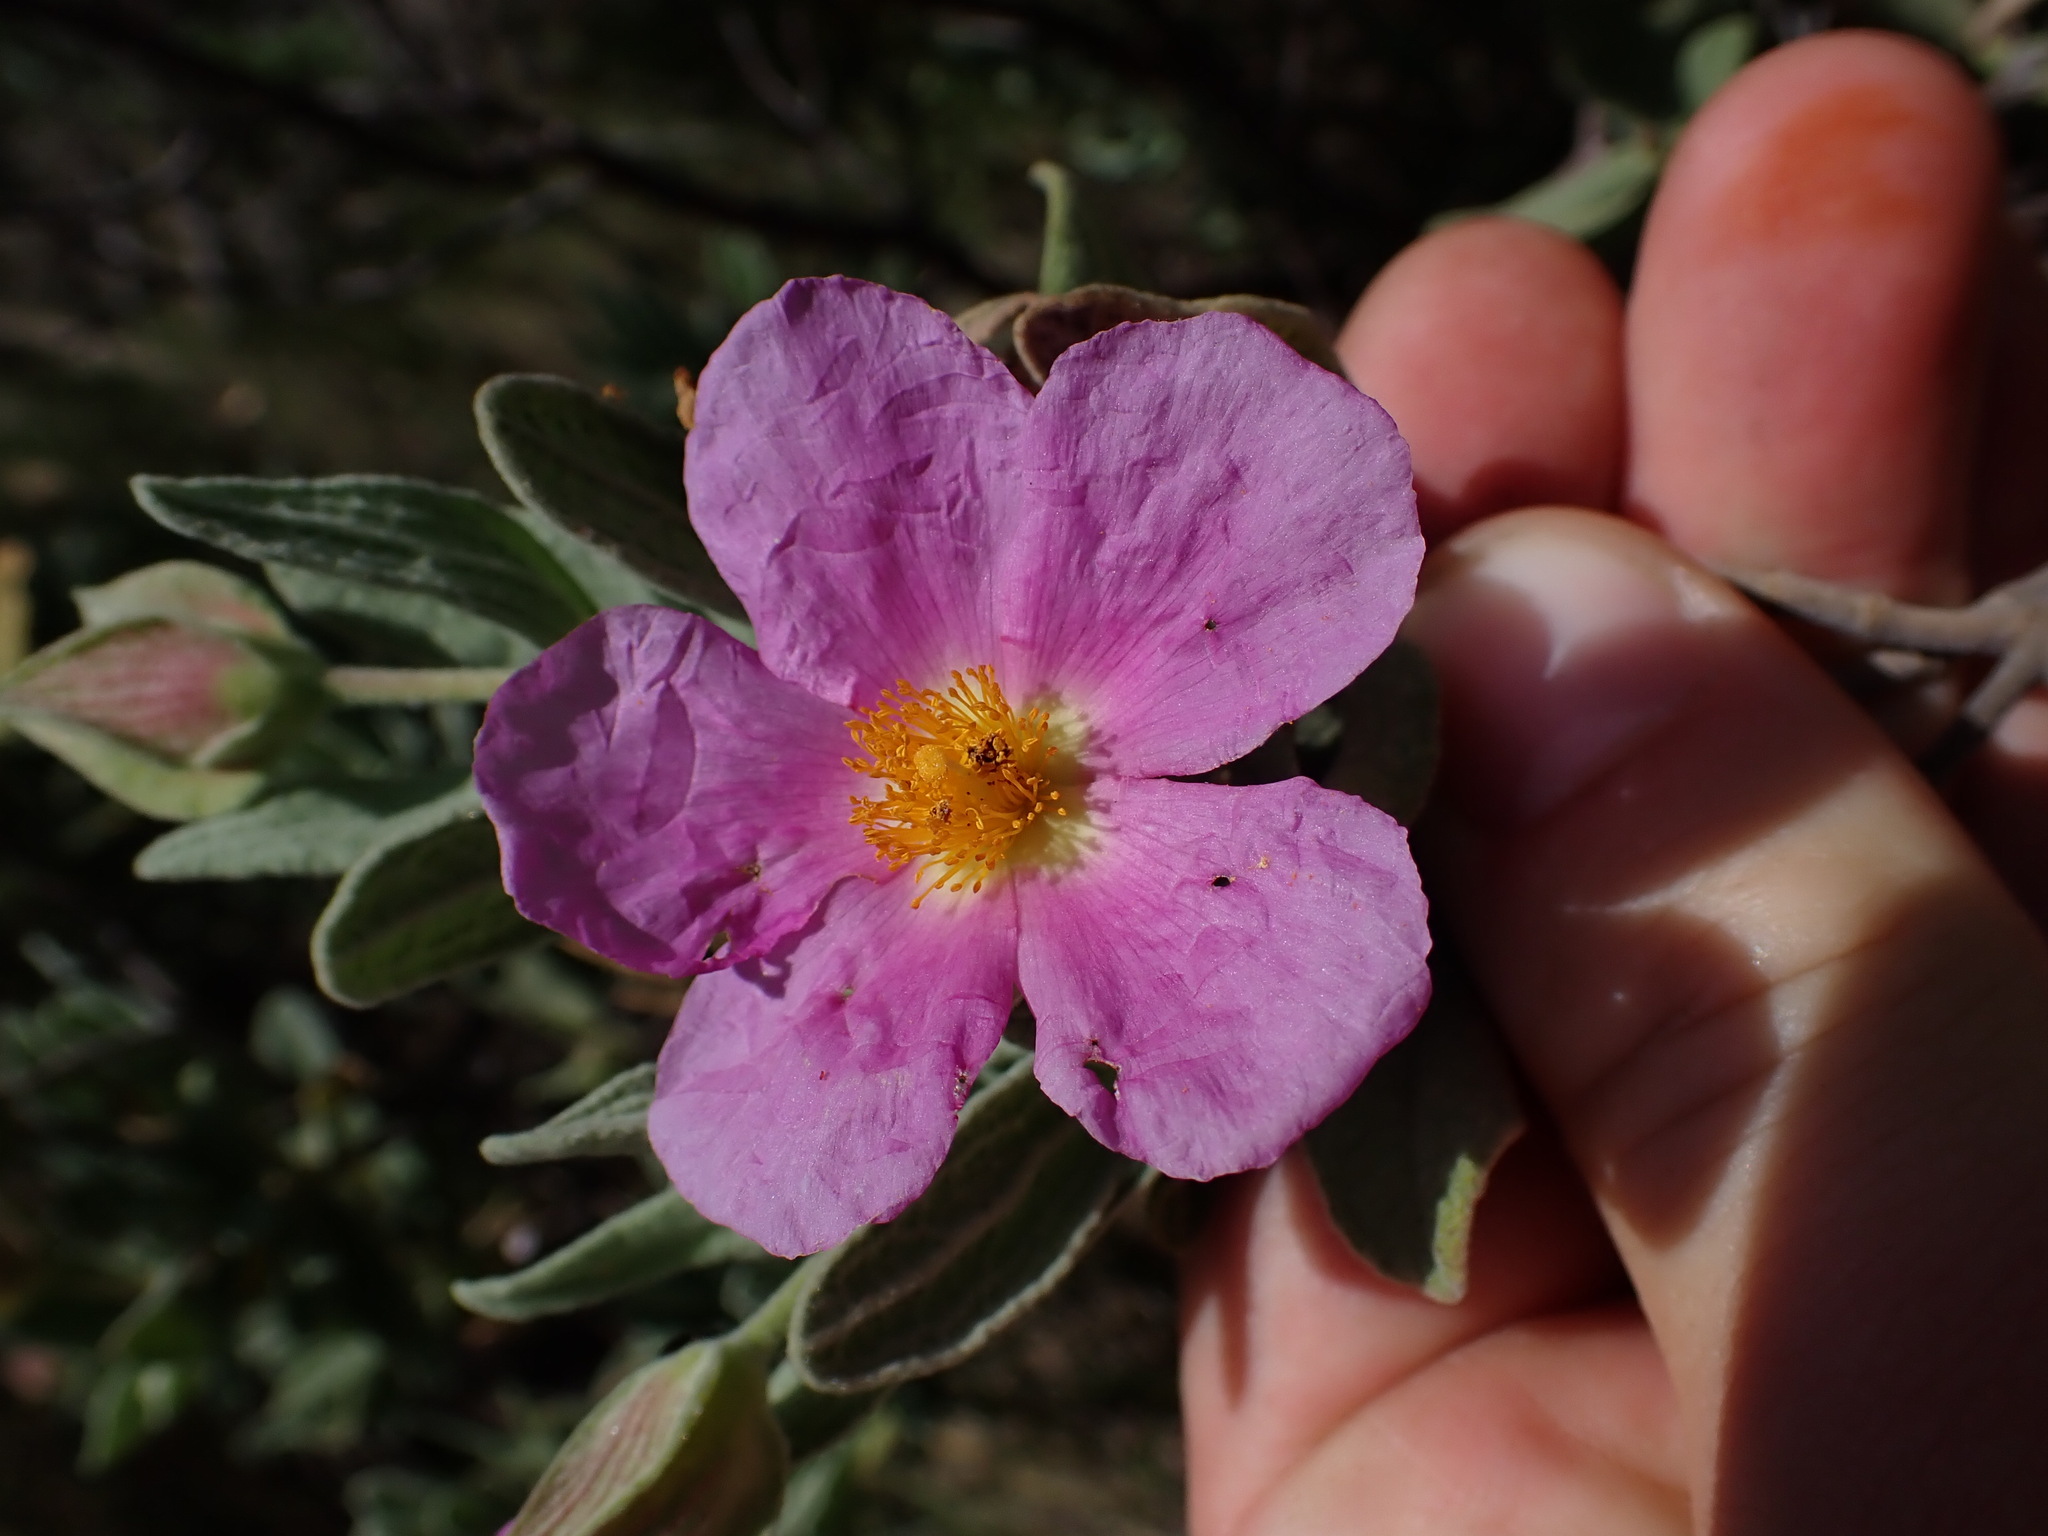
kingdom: Plantae
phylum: Tracheophyta
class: Magnoliopsida
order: Malvales
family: Cistaceae
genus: Cistus
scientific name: Cistus albidus
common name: White-leaf rock-rose
